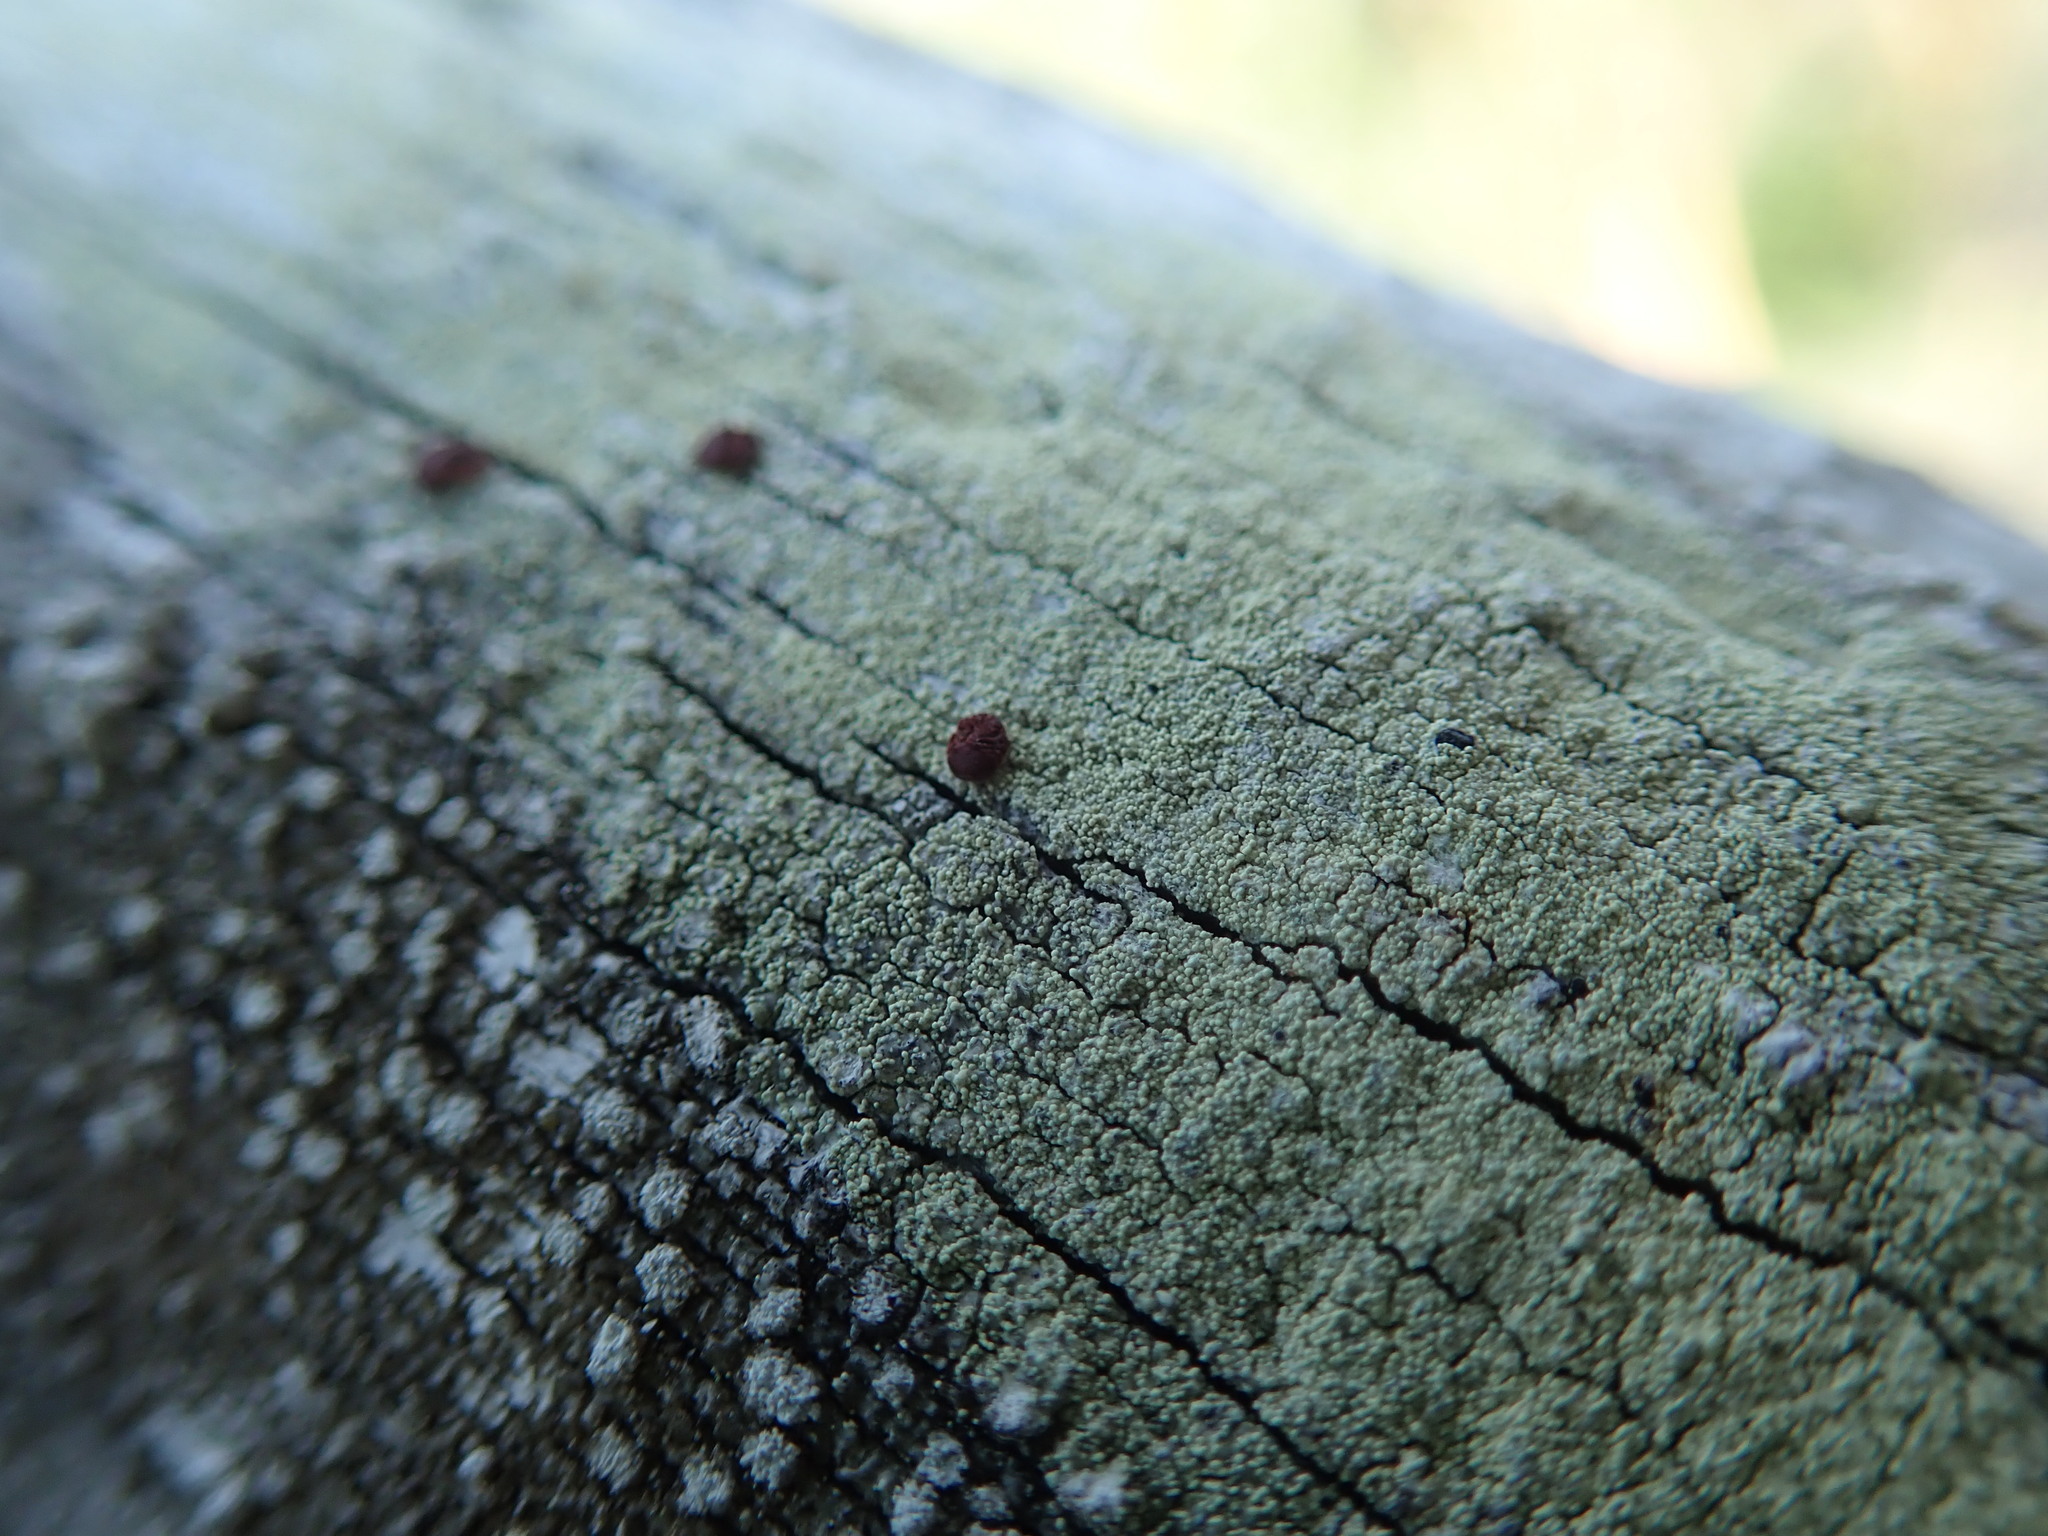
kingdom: Fungi
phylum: Ascomycota
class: Lecanoromycetes
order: Lecanorales
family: Ramalinaceae
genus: Bilimbia
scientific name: Bilimbia rubricosa
